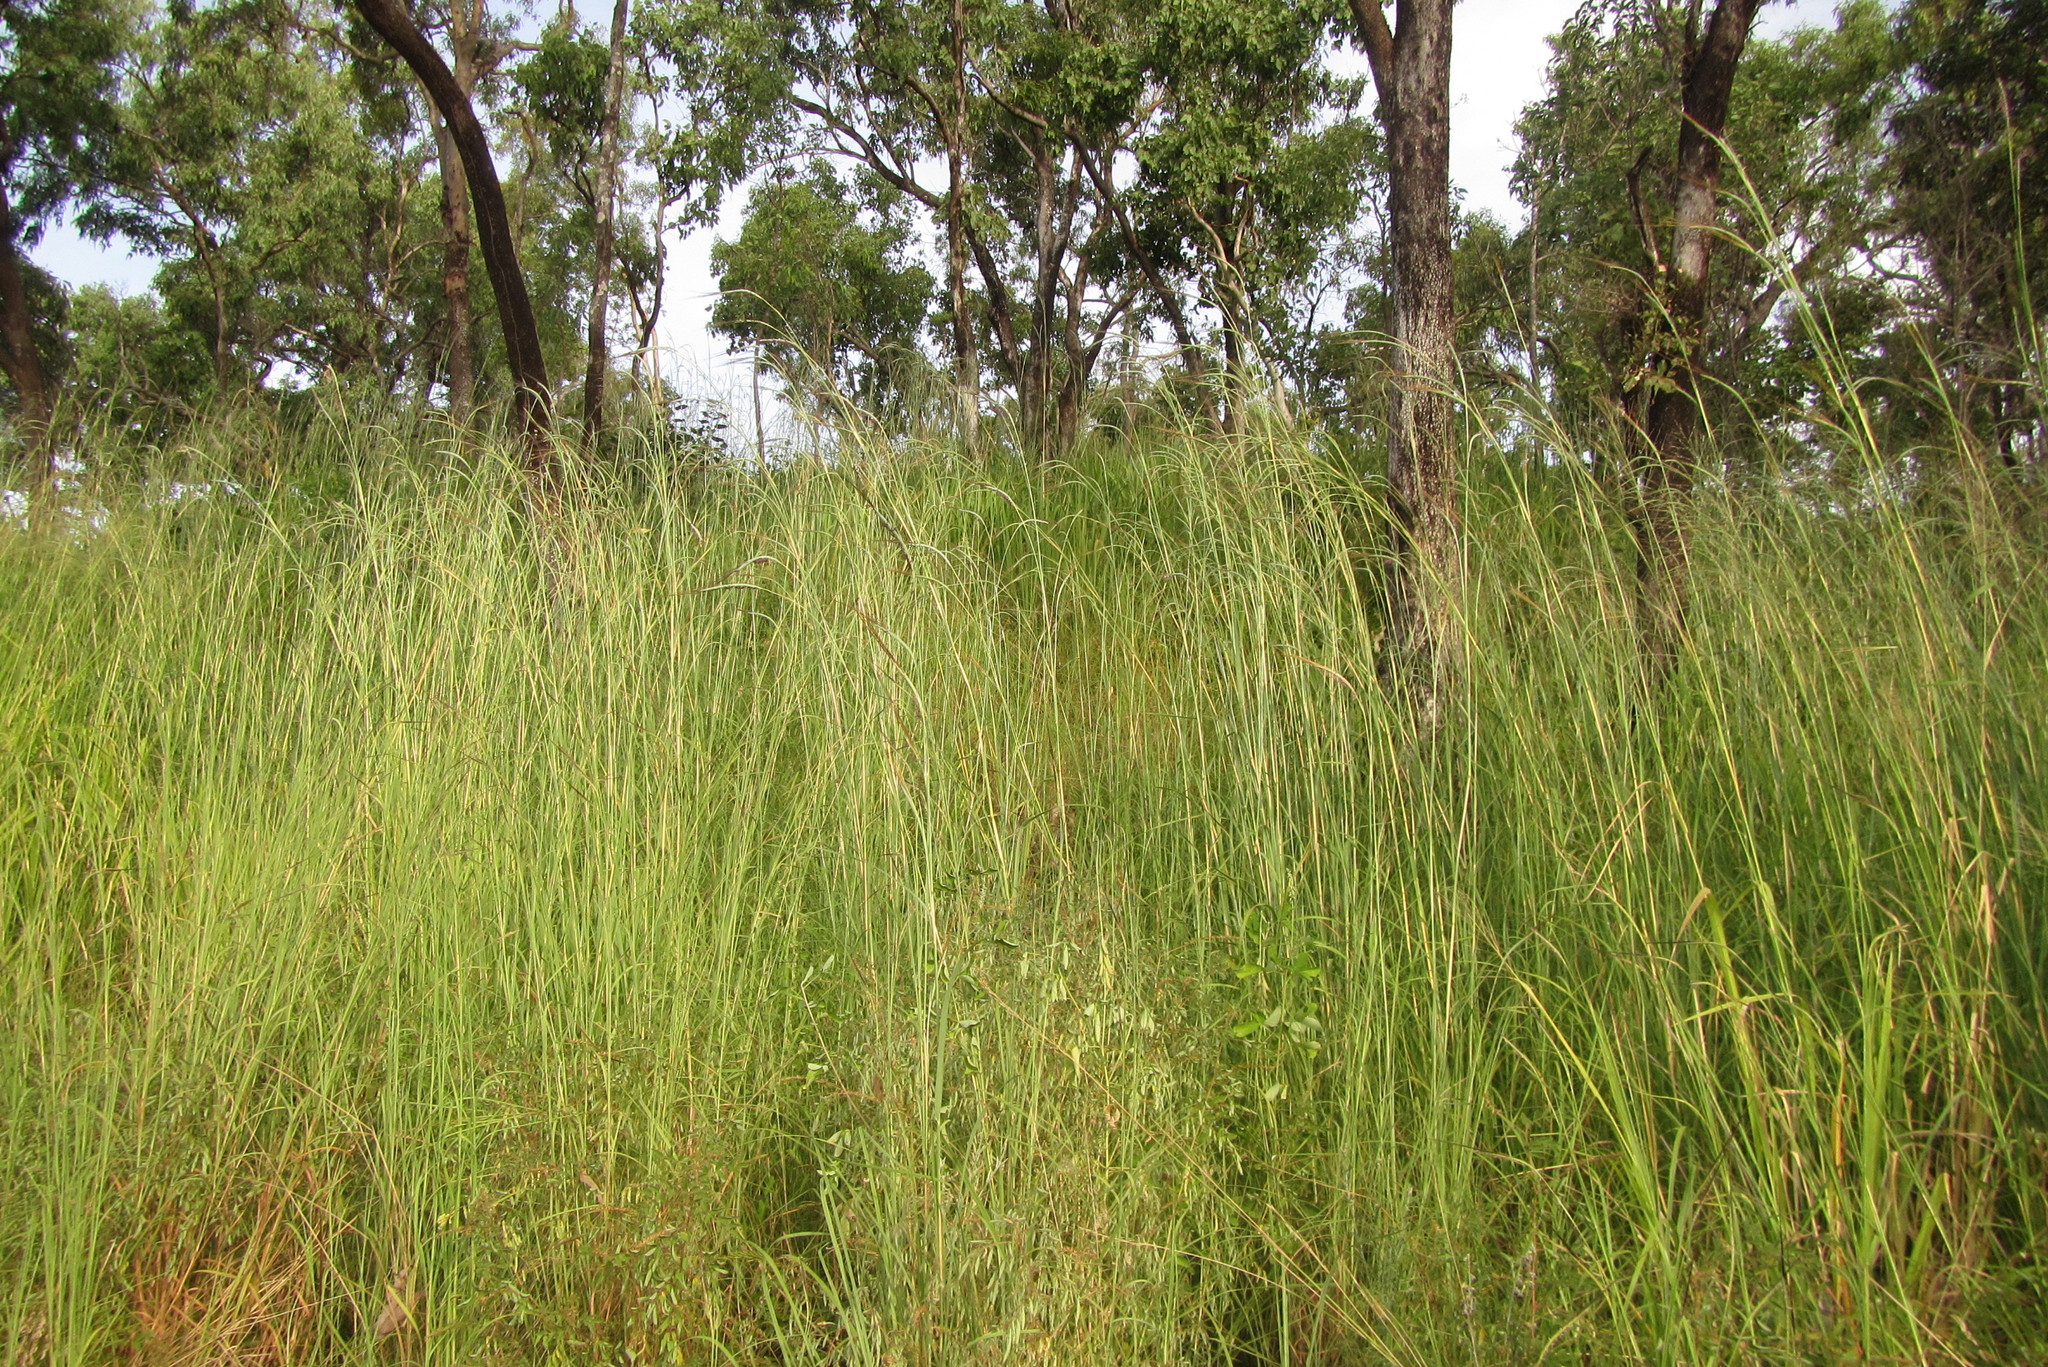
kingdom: Plantae
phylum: Tracheophyta
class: Liliopsida
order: Poales
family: Poaceae
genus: Heteropogon
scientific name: Heteropogon triticeus
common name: Sugar grass
